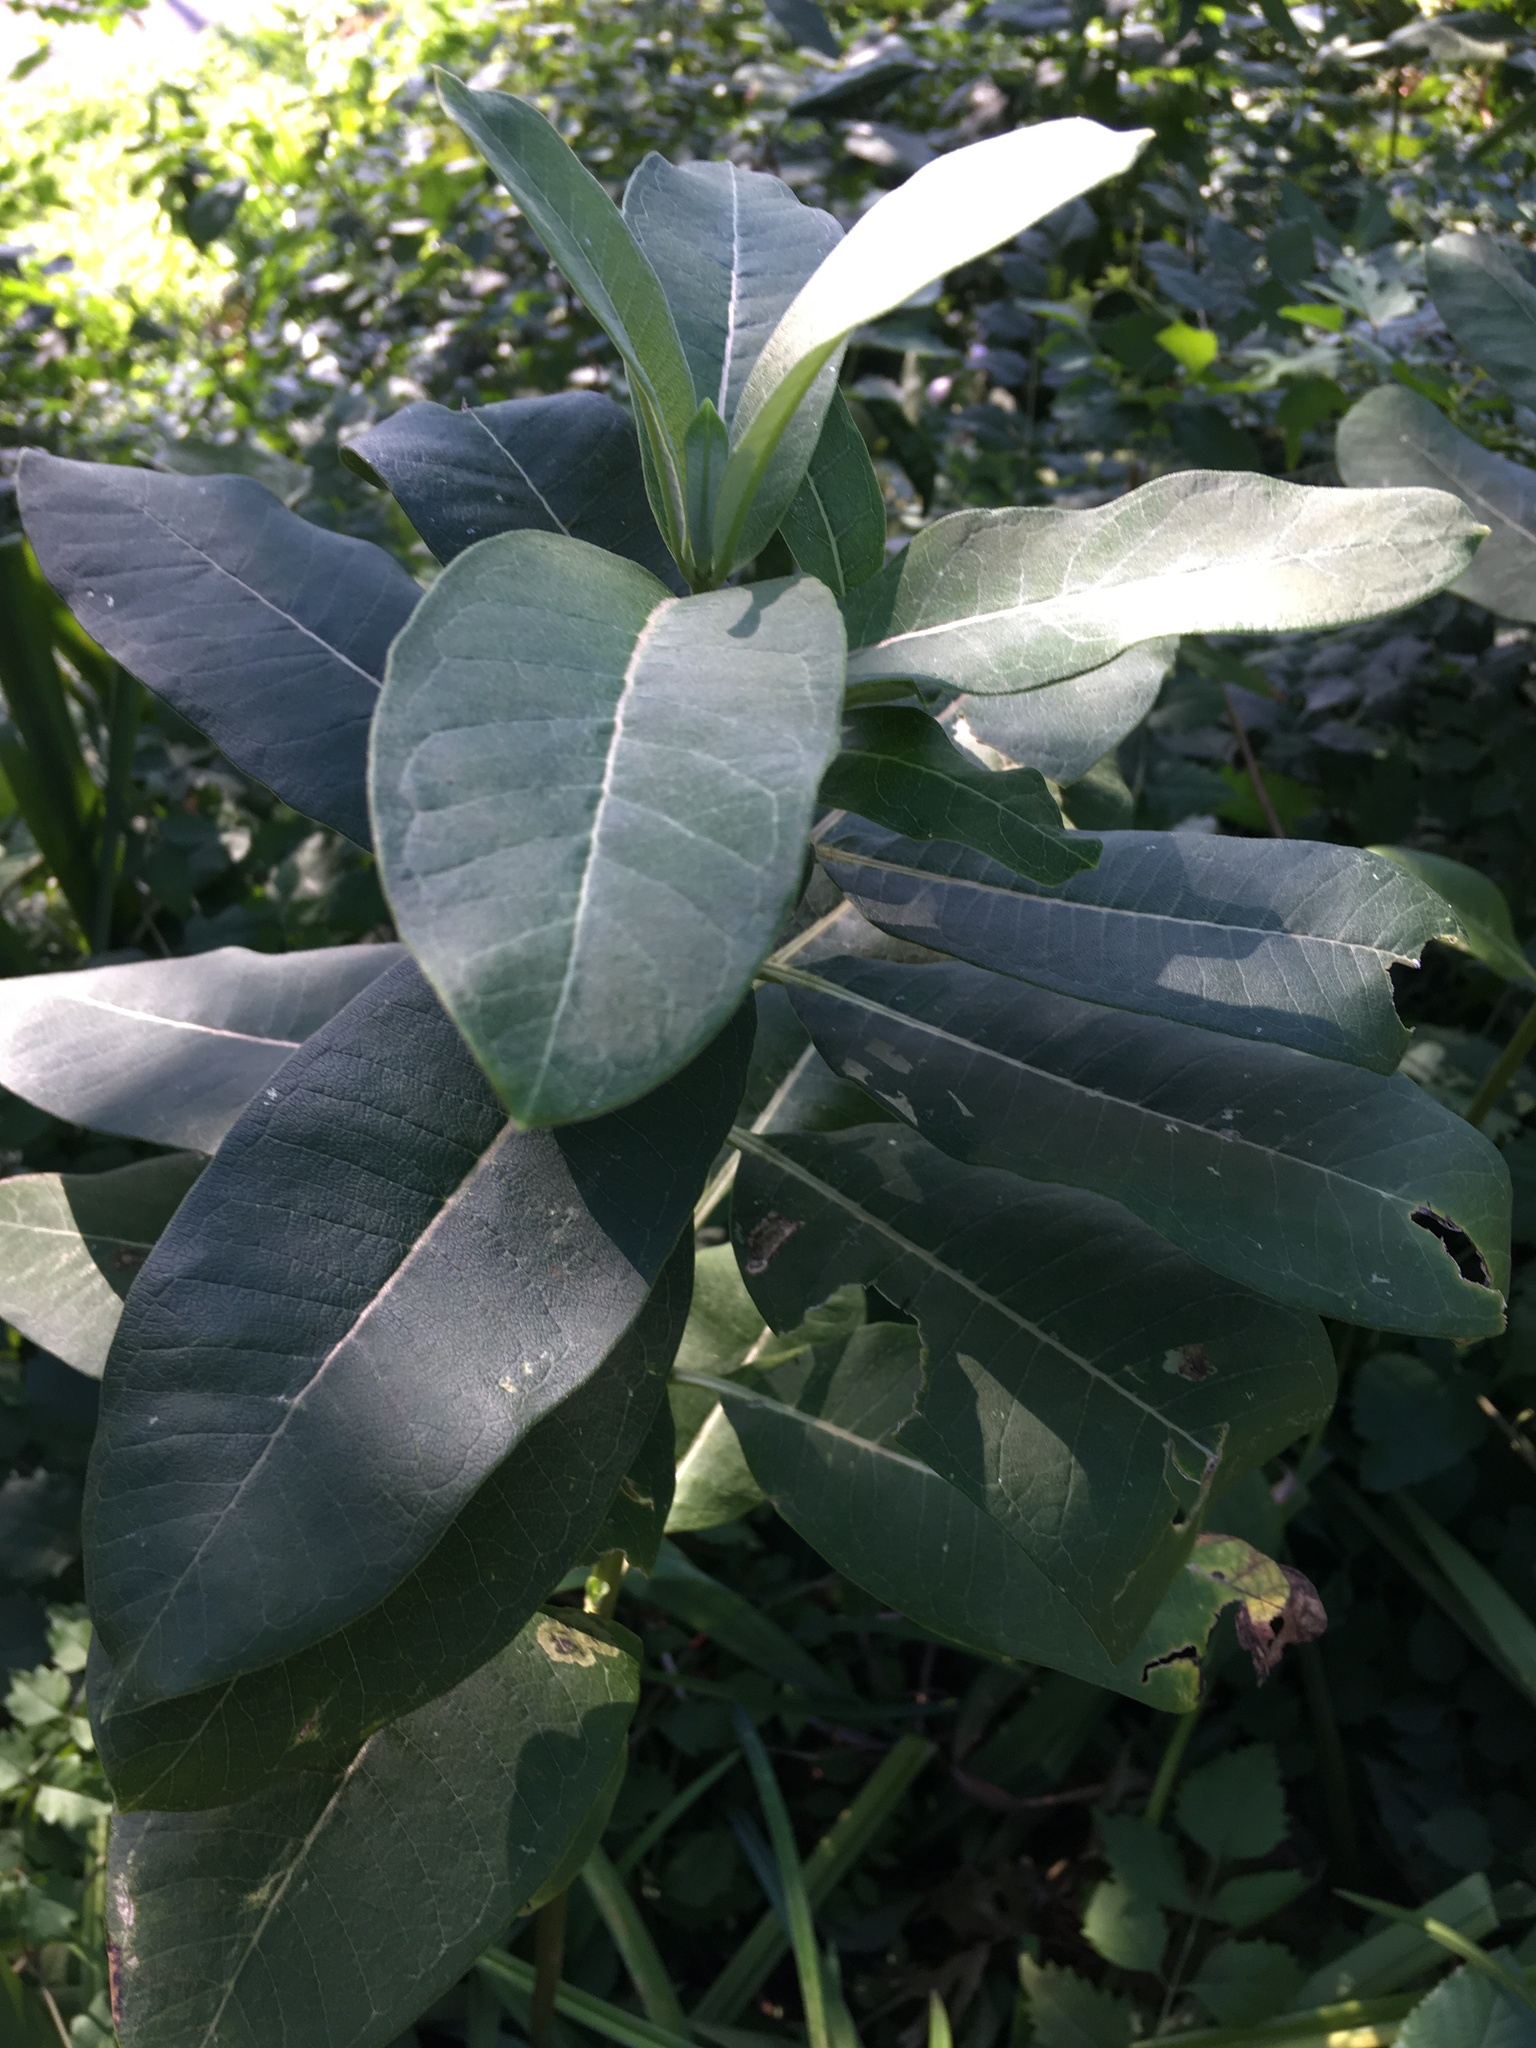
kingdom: Plantae
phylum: Tracheophyta
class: Magnoliopsida
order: Gentianales
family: Apocynaceae
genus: Asclepias
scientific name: Asclepias syriaca
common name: Common milkweed
